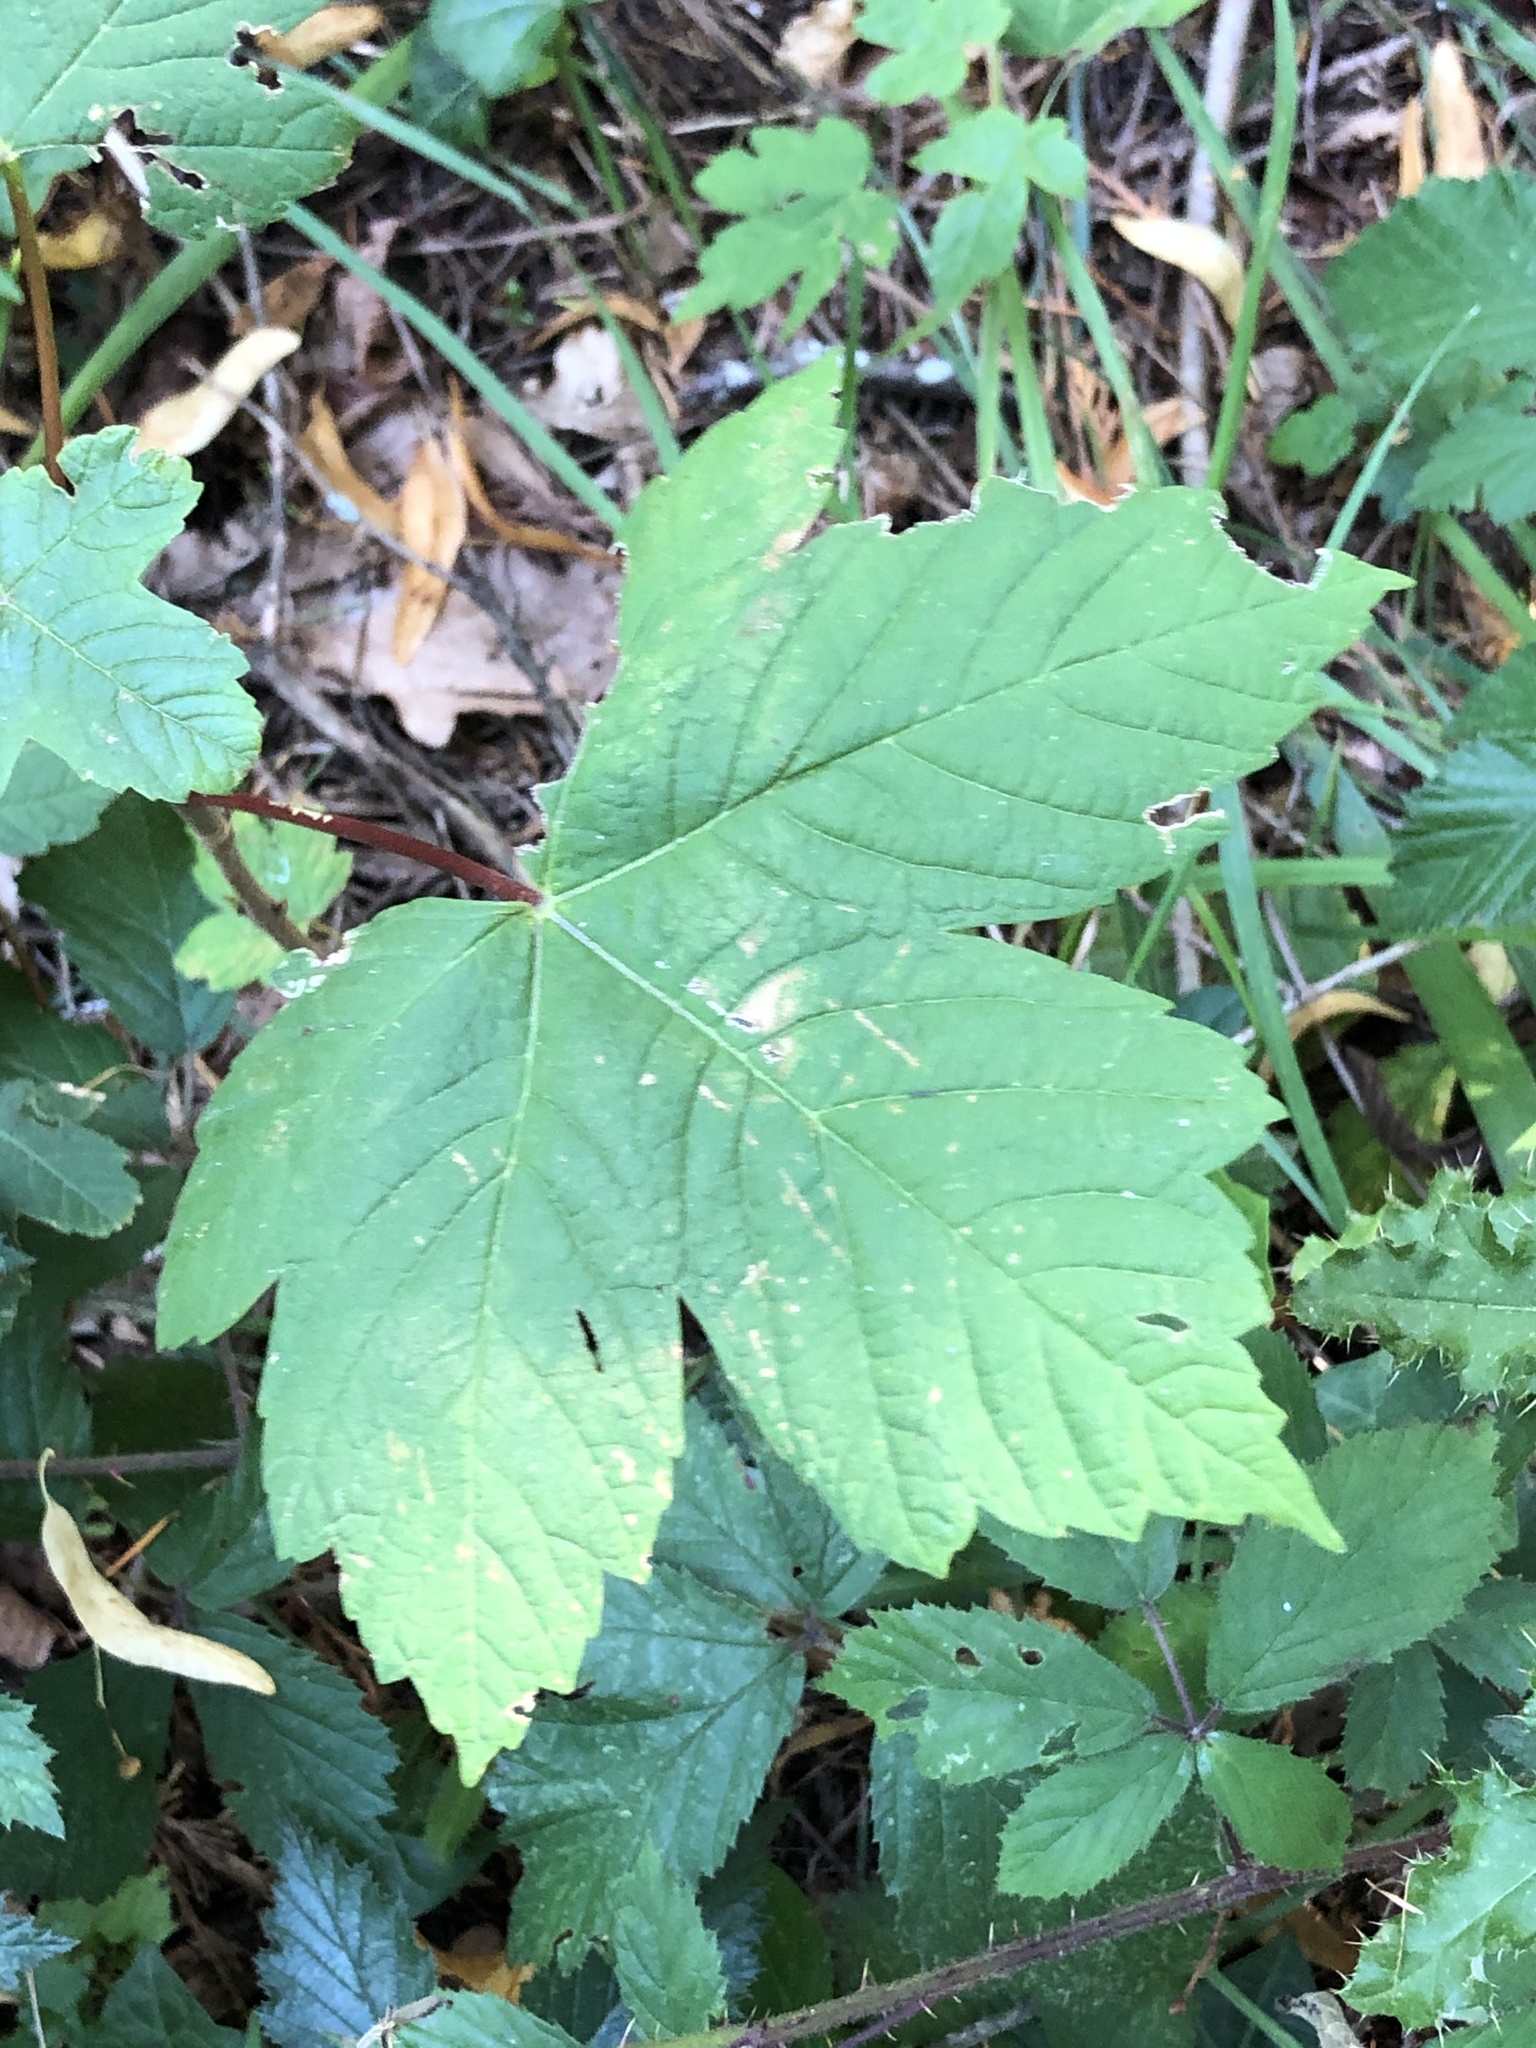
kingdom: Plantae
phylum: Tracheophyta
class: Magnoliopsida
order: Sapindales
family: Sapindaceae
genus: Acer
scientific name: Acer pseudoplatanus
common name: Sycamore
